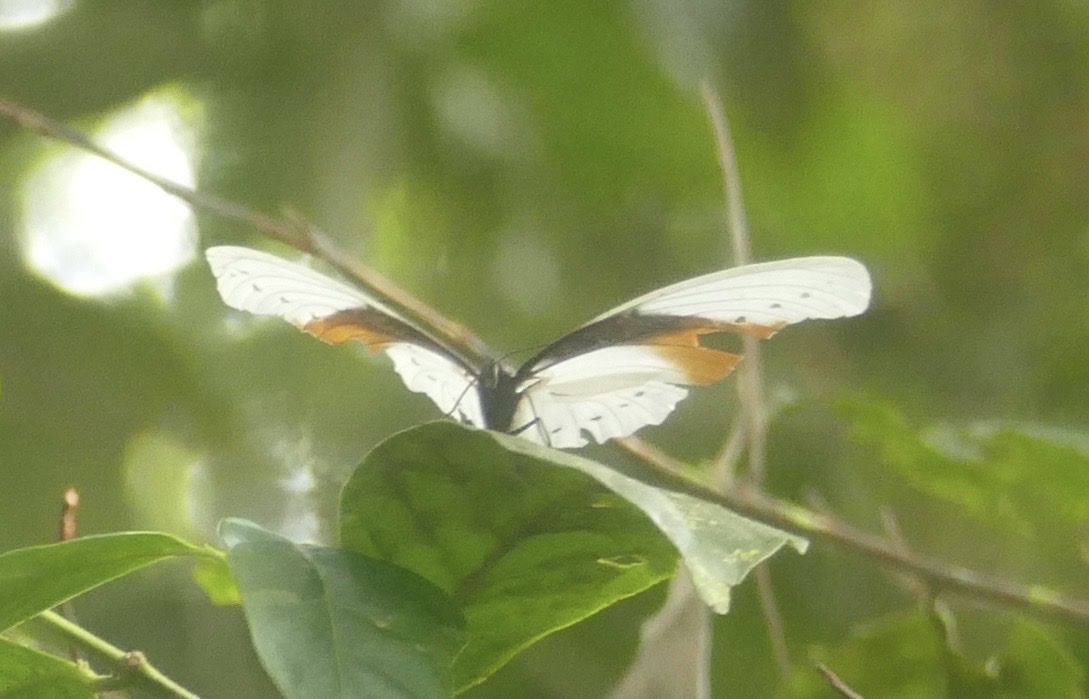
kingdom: Animalia
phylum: Arthropoda
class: Insecta
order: Lepidoptera
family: Nymphalidae
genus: Taenaris
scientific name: Taenaris schoenbergi
